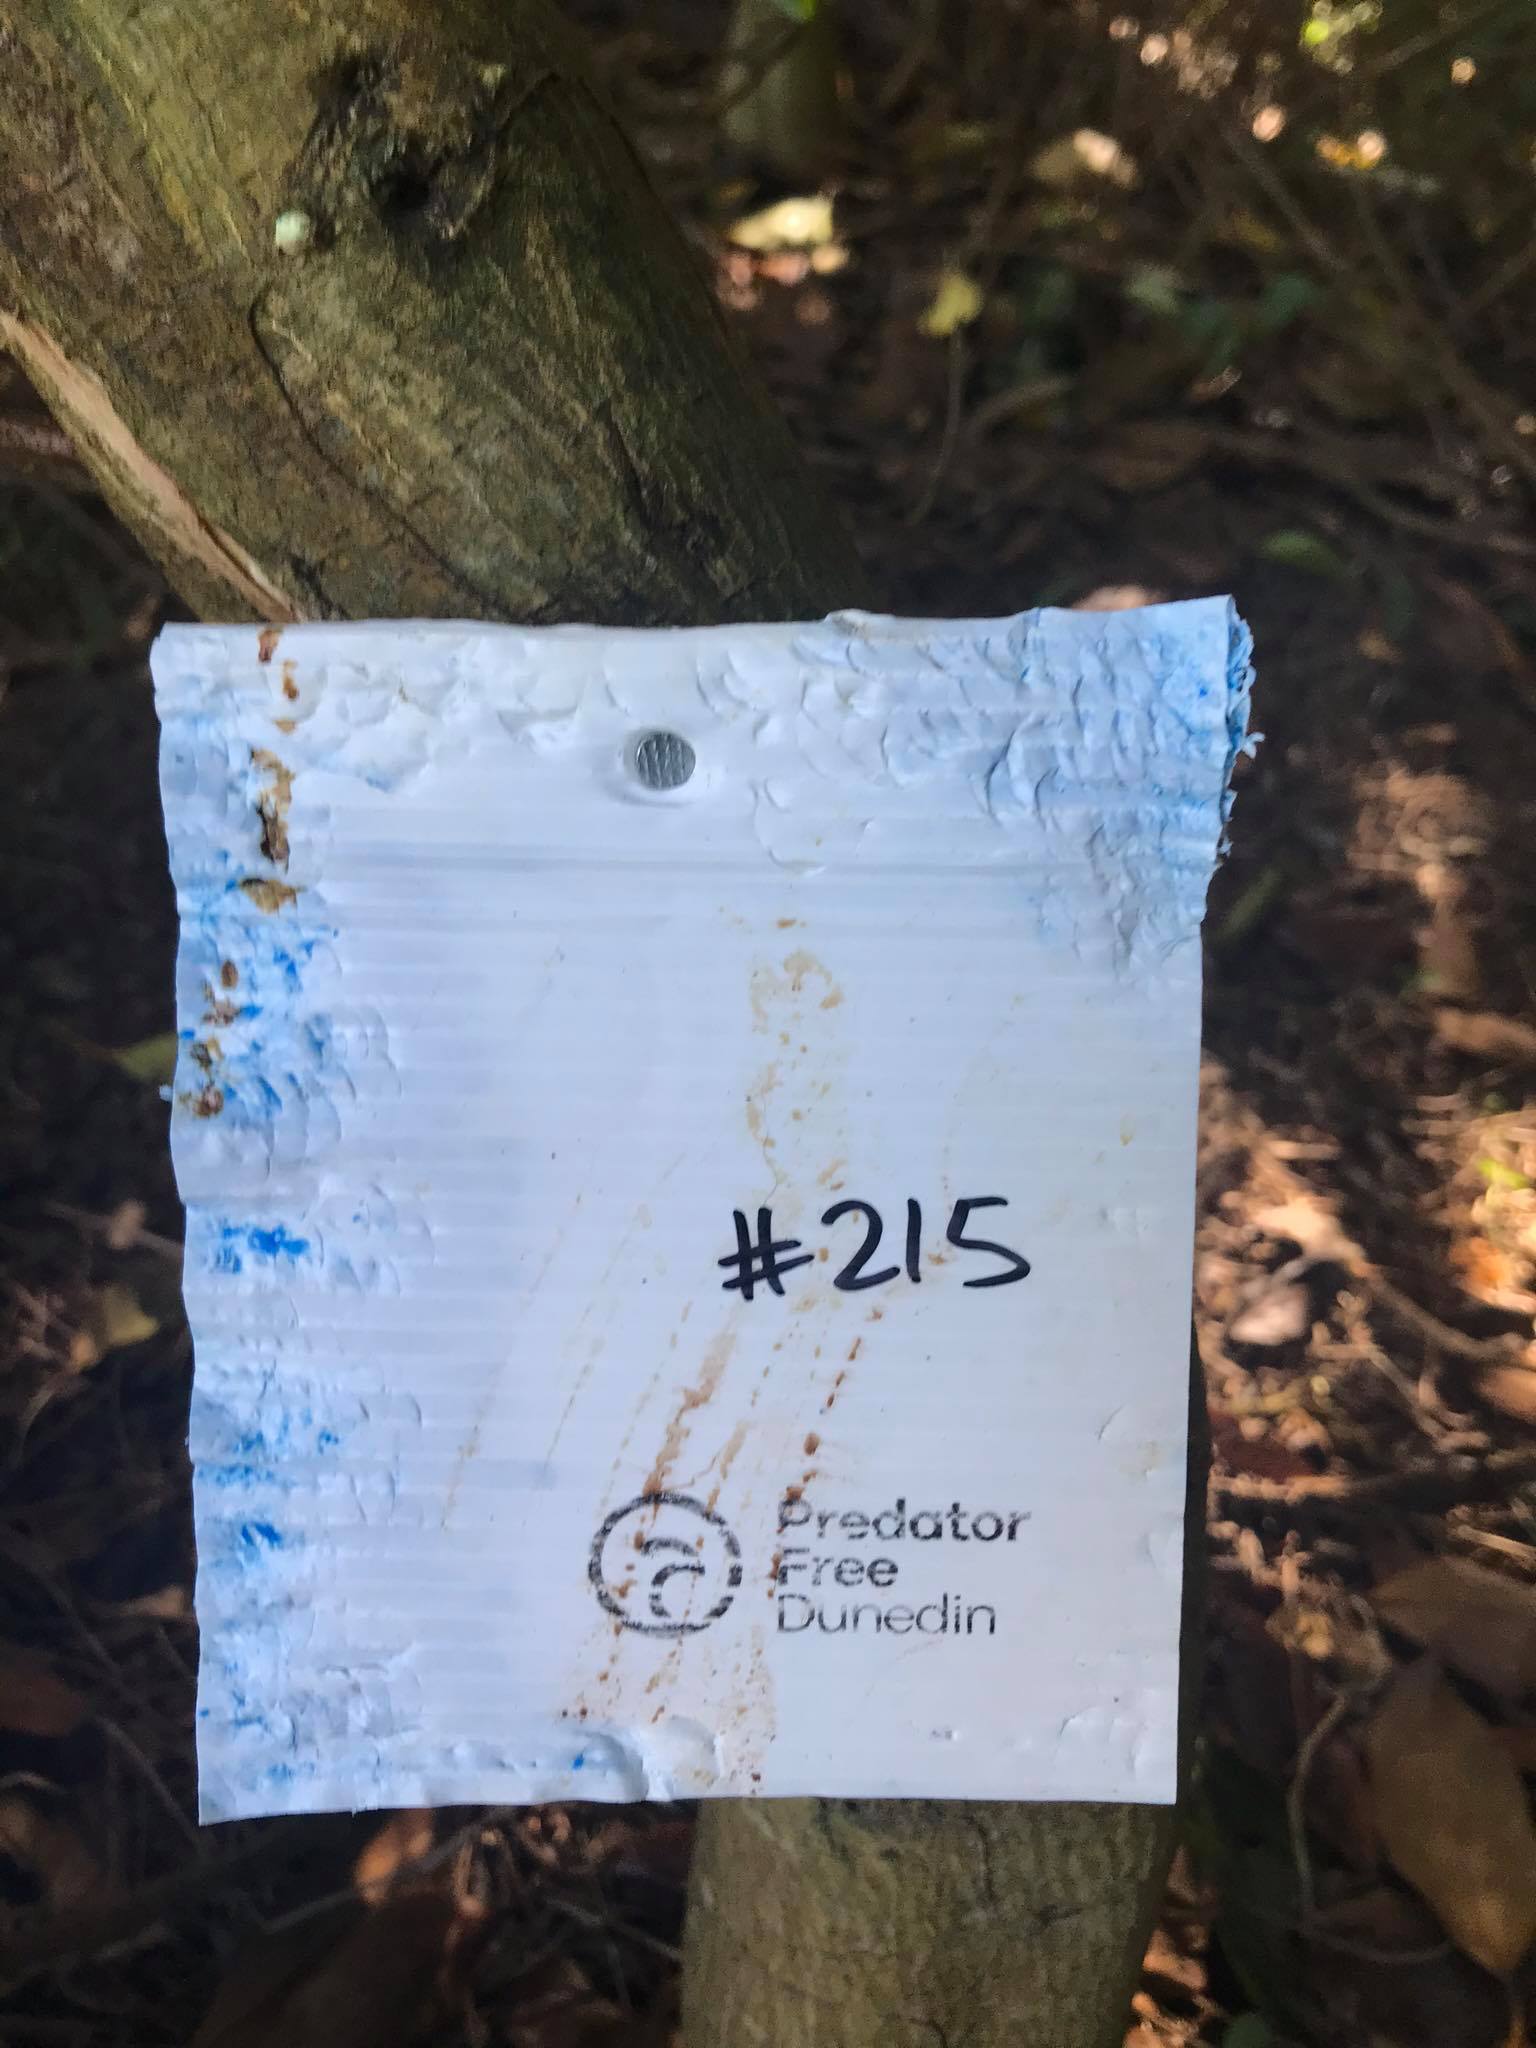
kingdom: Animalia
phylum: Chordata
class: Mammalia
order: Diprotodontia
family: Phalangeridae
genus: Trichosurus
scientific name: Trichosurus vulpecula
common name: Common brushtail
